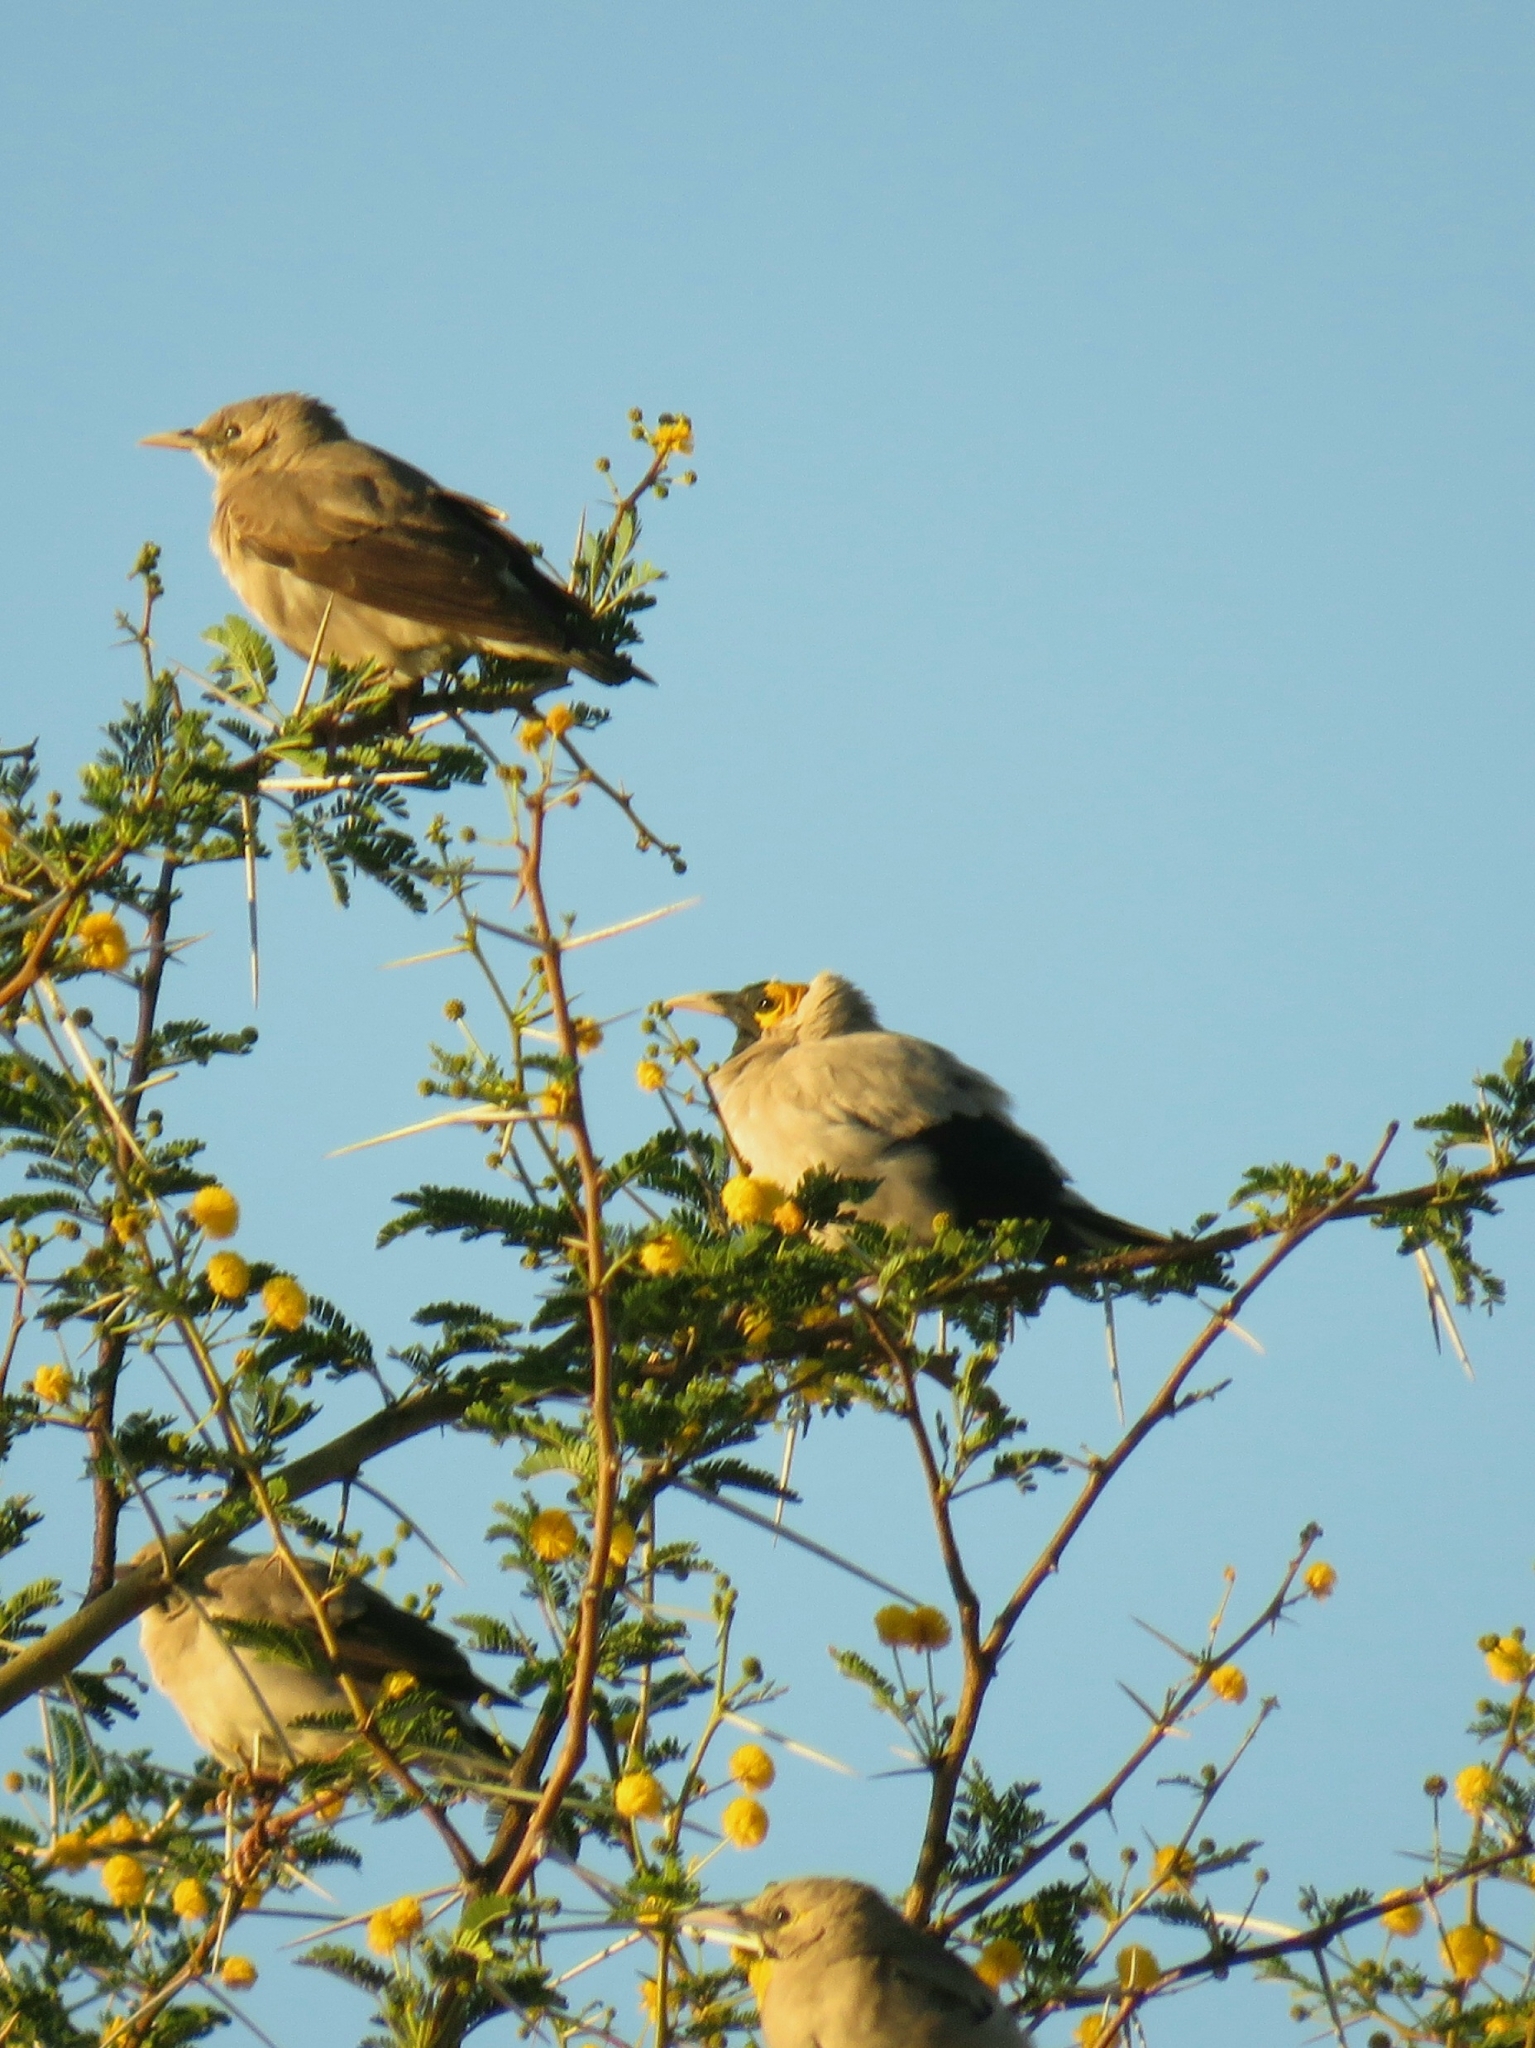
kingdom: Animalia
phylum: Chordata
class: Aves
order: Passeriformes
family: Sturnidae
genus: Creatophora
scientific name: Creatophora cinerea
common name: Wattled starling
